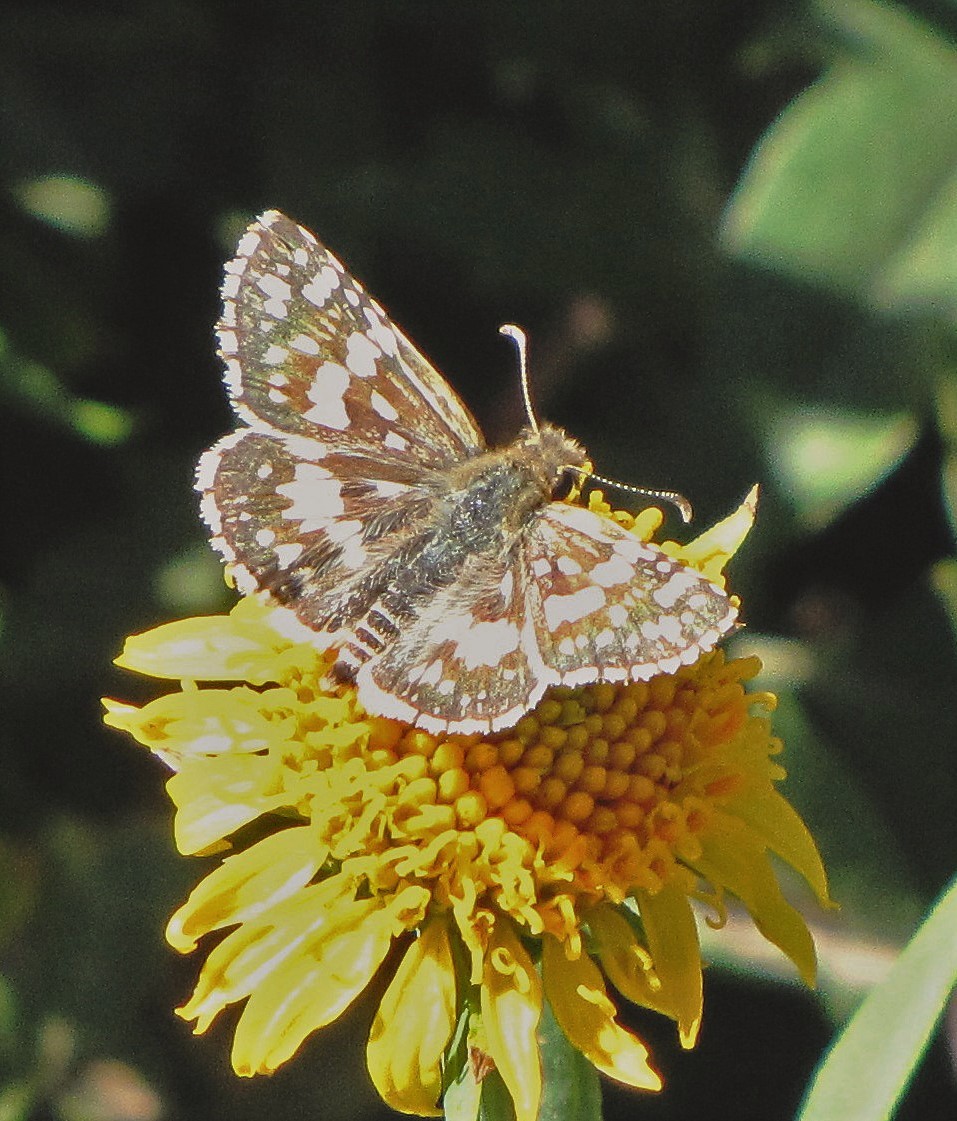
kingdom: Animalia
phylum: Arthropoda
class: Insecta
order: Lepidoptera
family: Hesperiidae
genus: Burnsius
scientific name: Burnsius orcynoides
